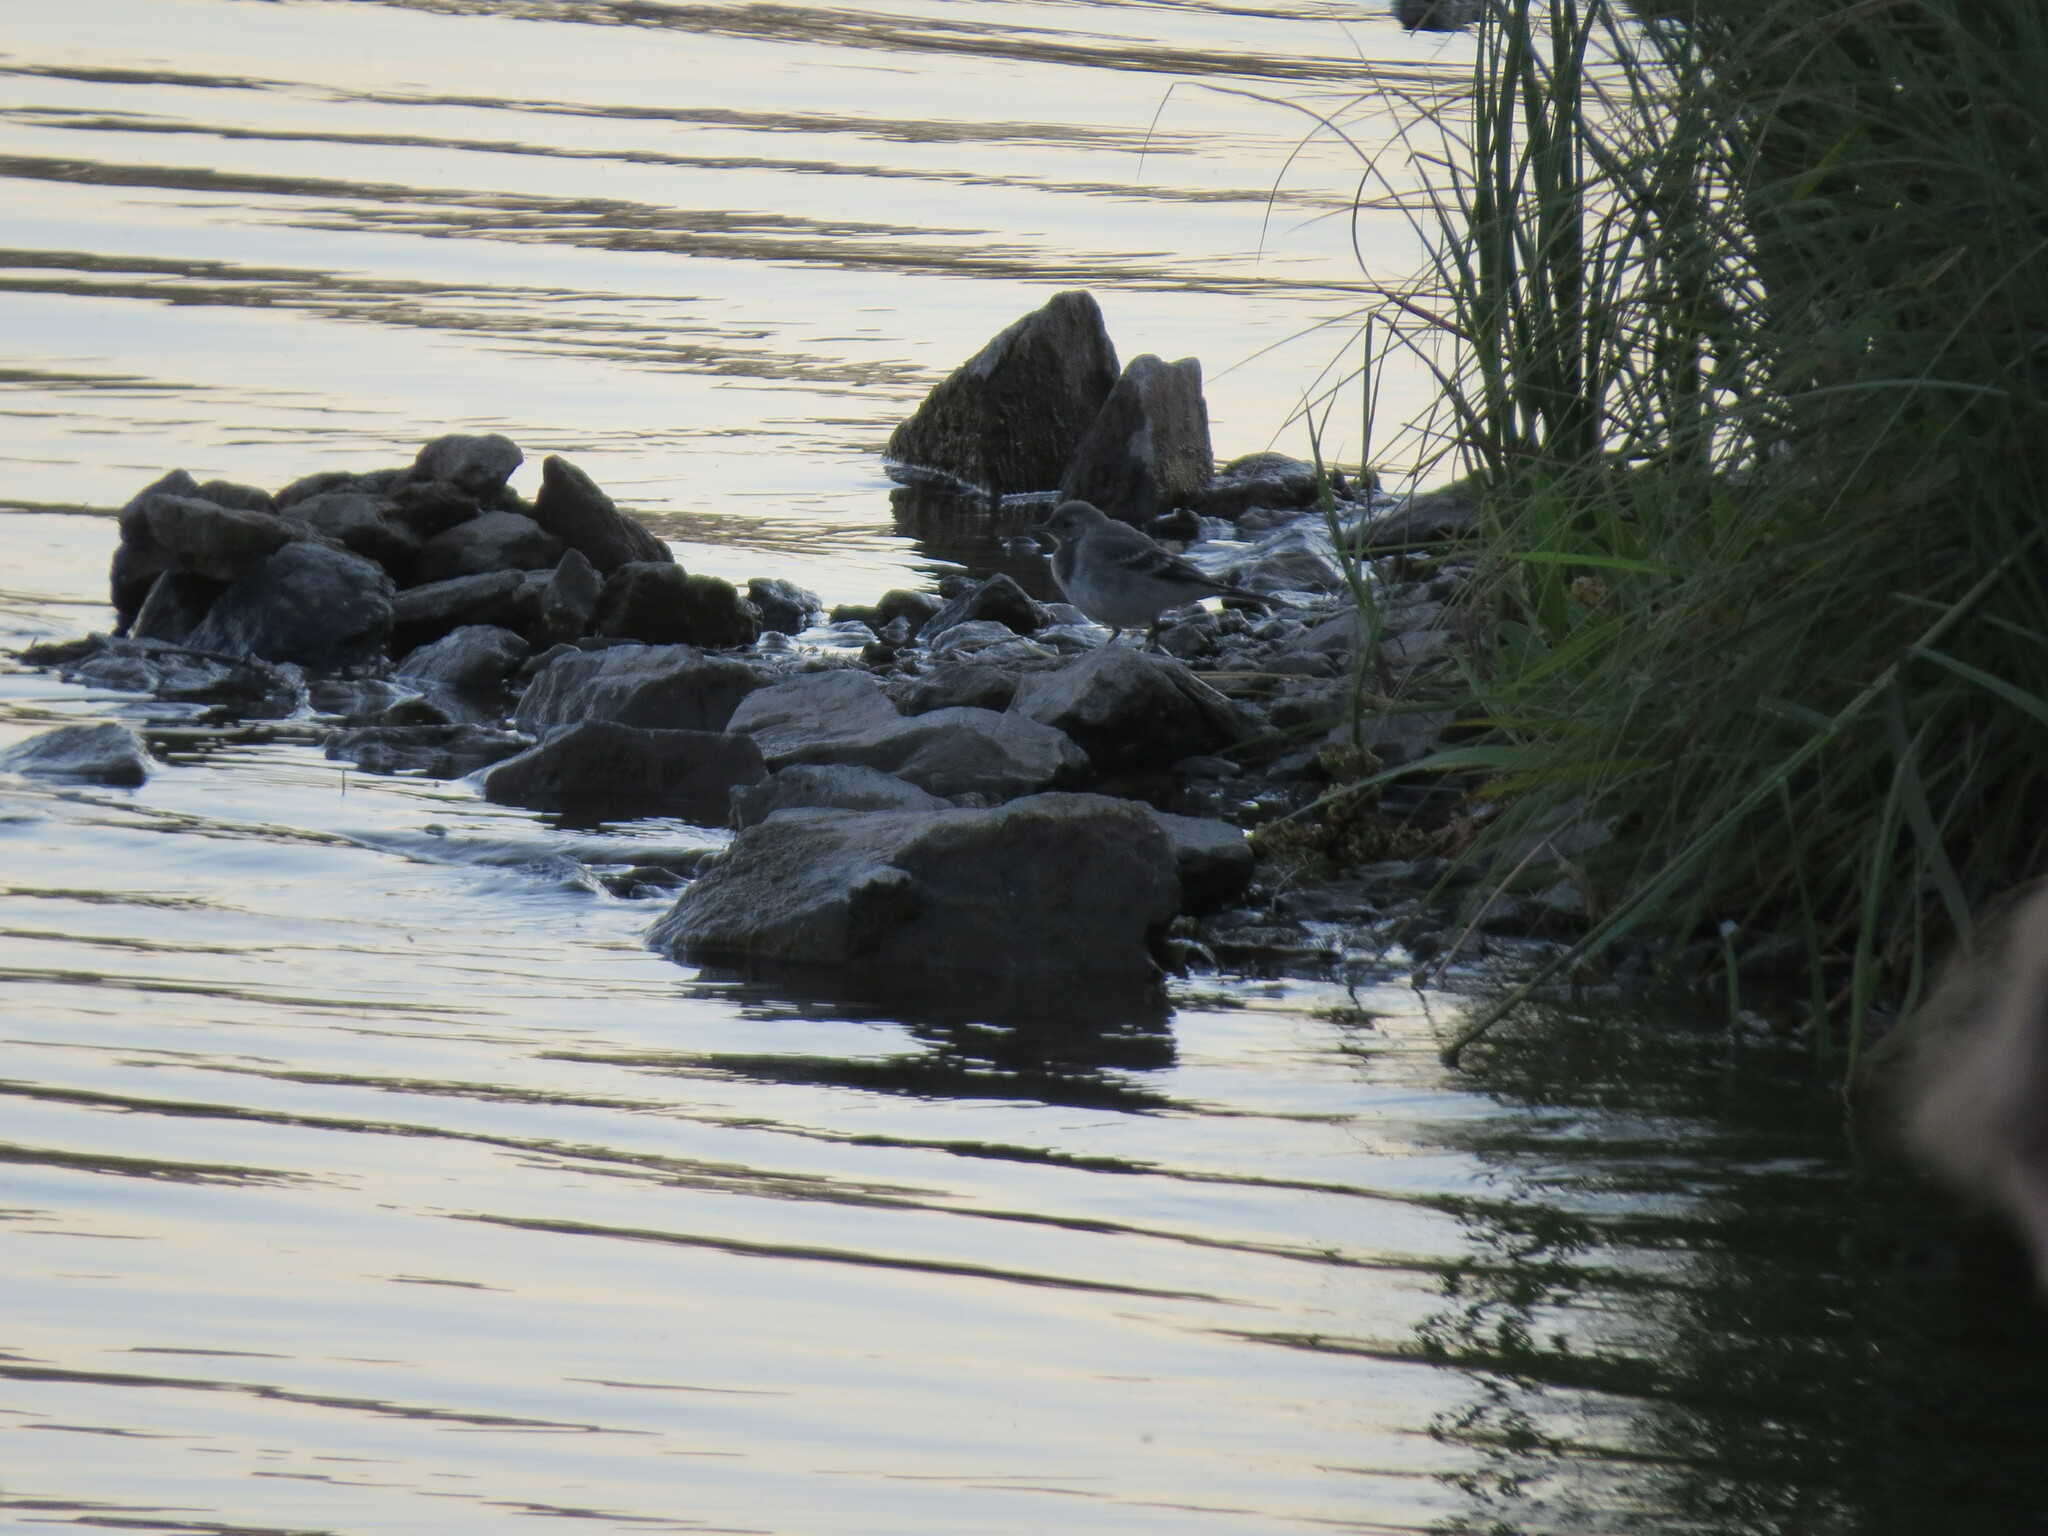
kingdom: Animalia
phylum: Chordata
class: Aves
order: Passeriformes
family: Motacillidae
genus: Motacilla
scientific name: Motacilla alba
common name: White wagtail
